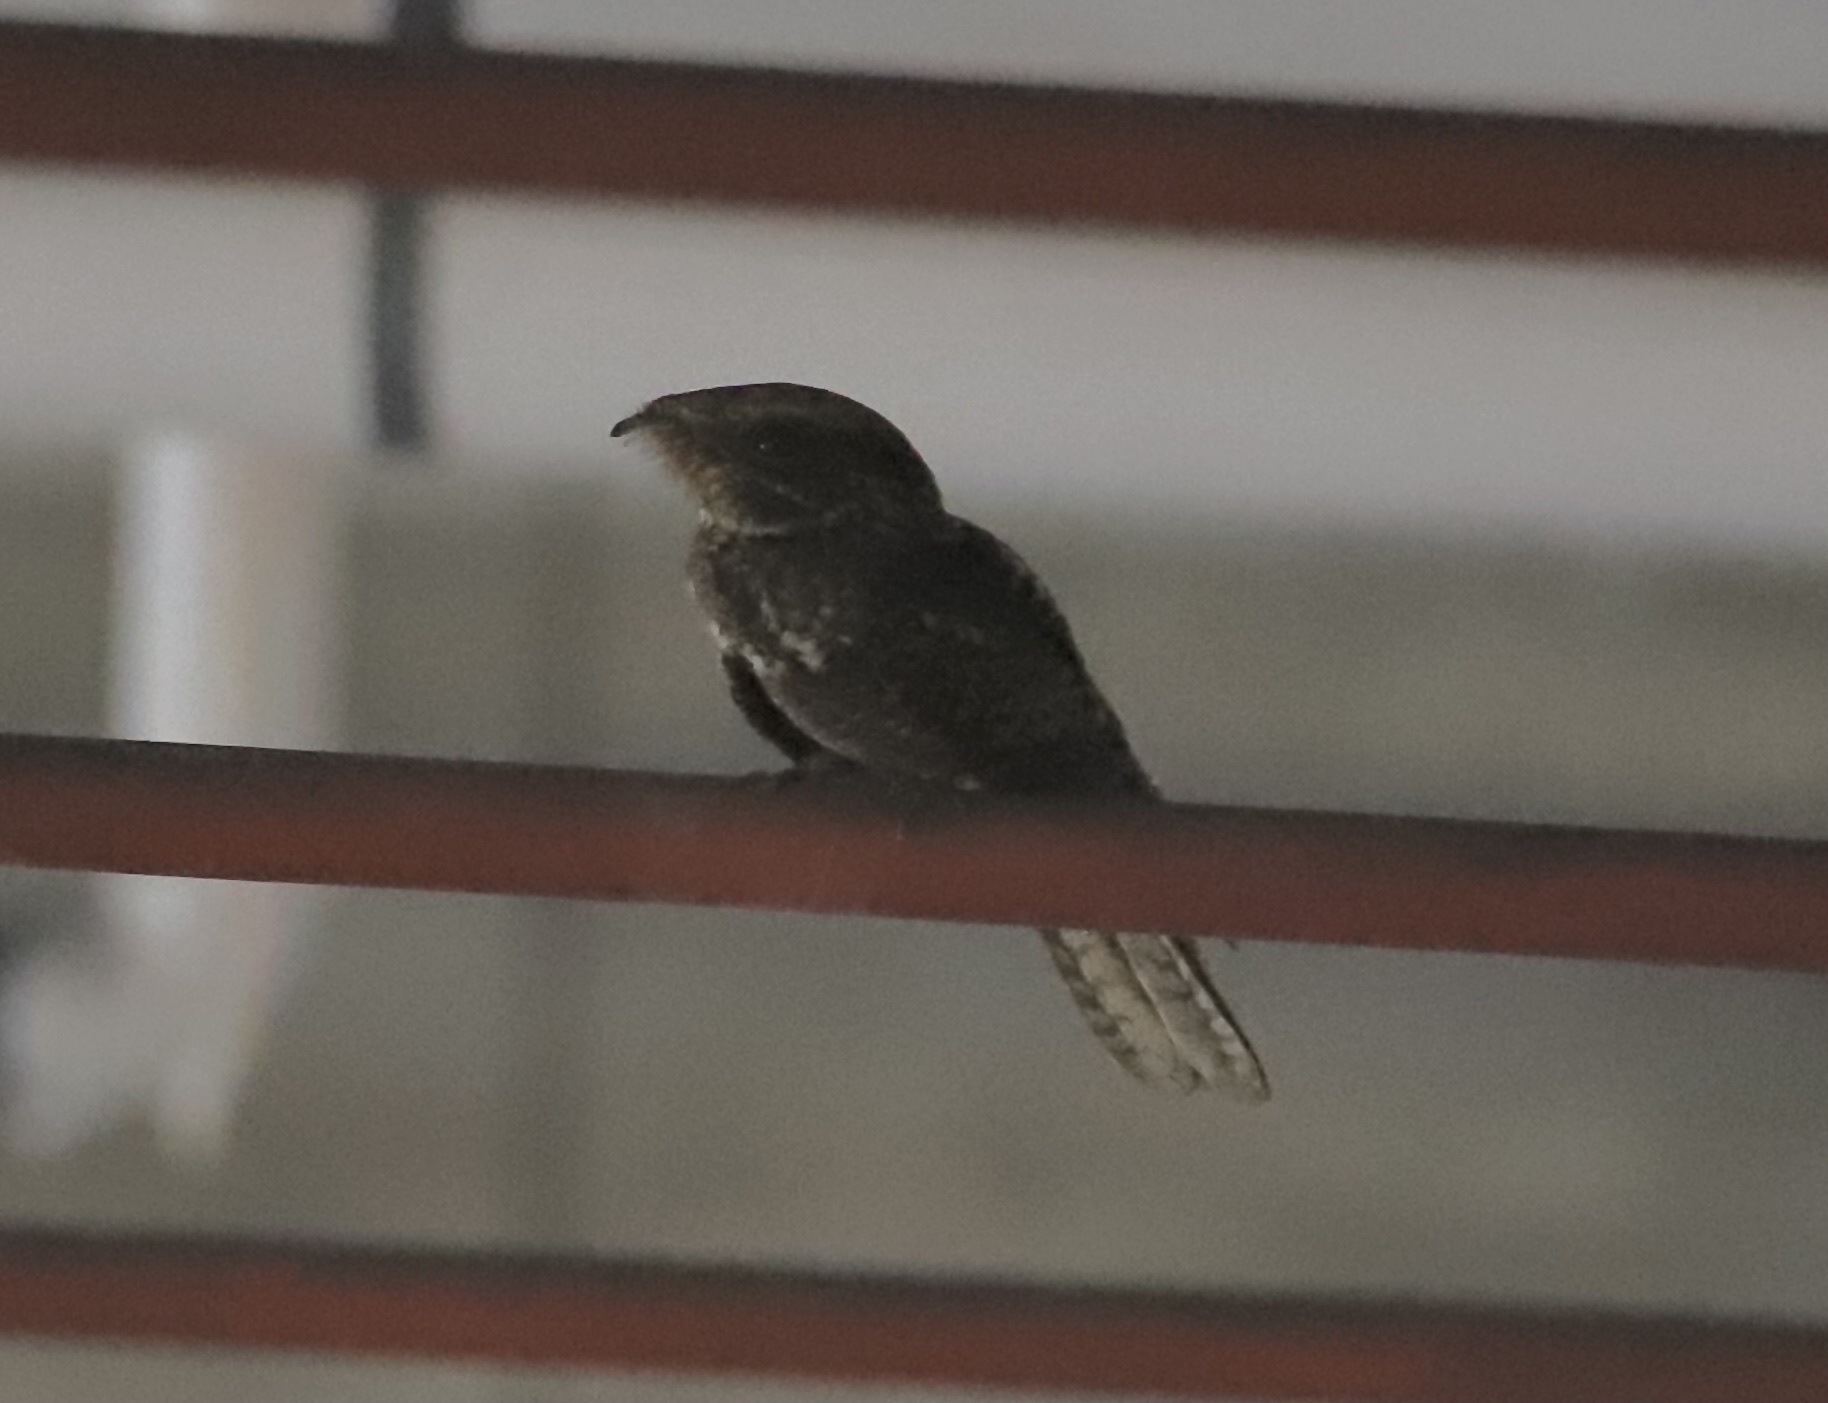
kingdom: Animalia
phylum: Chordata
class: Aves
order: Caprimulgiformes
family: Caprimulgidae
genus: Antrostomus
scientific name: Antrostomus carolinensis
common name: Chuck-will's-widow
